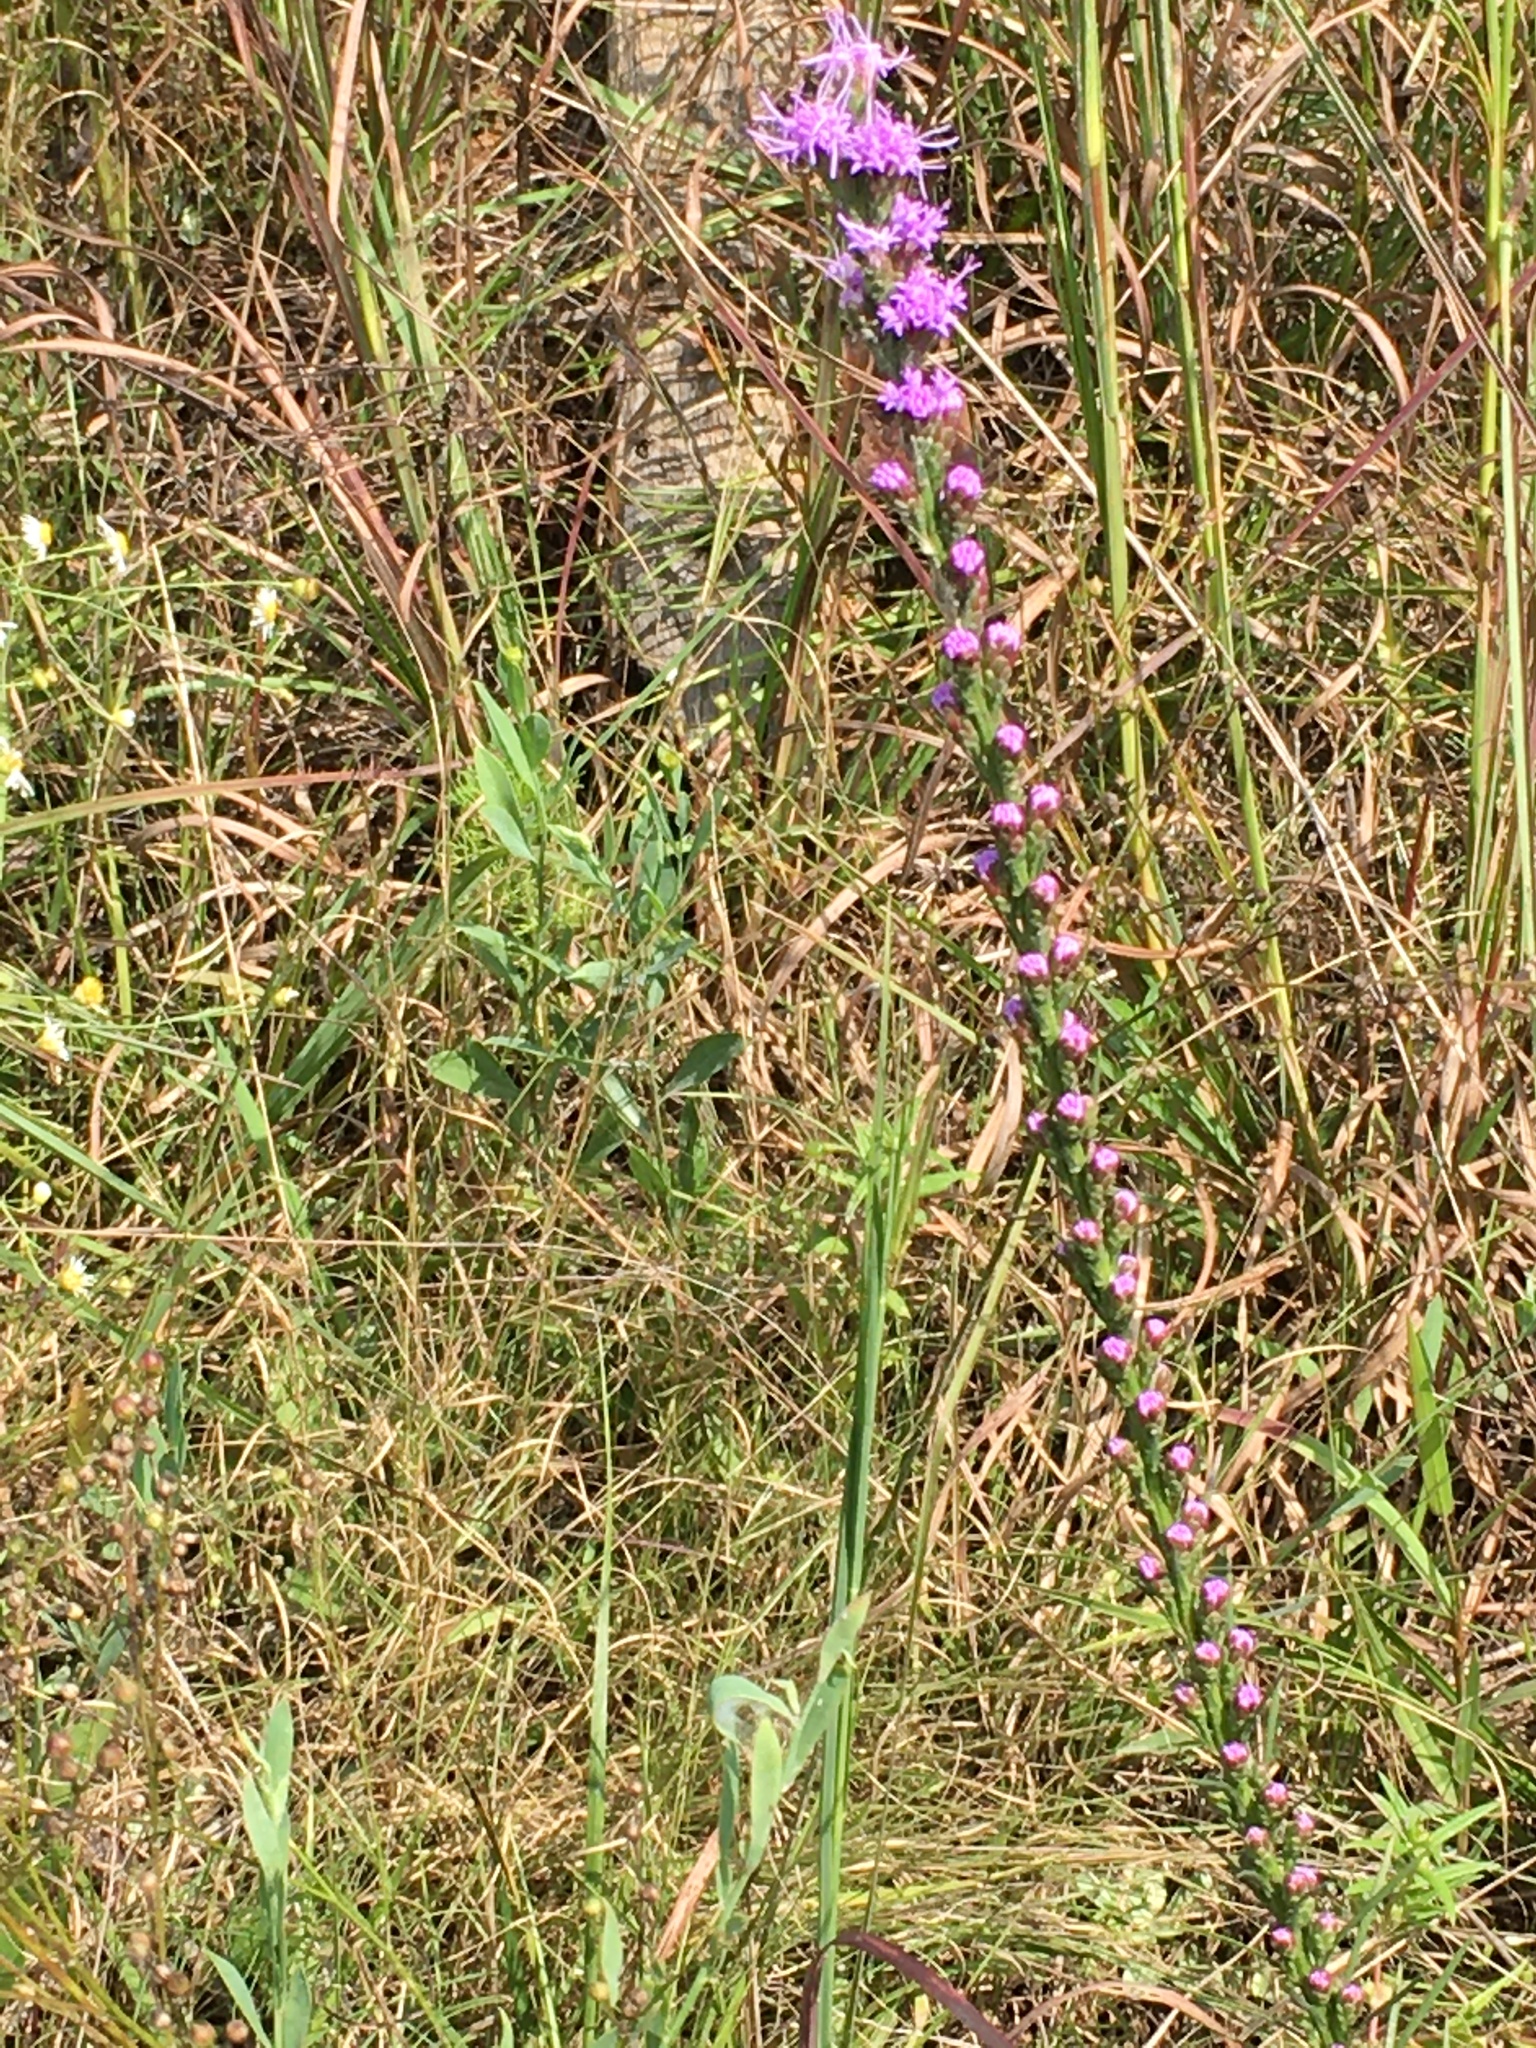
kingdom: Plantae
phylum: Tracheophyta
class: Magnoliopsida
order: Asterales
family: Asteraceae
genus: Liatris
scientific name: Liatris pilosa
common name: Grass-leaf gayfeather
